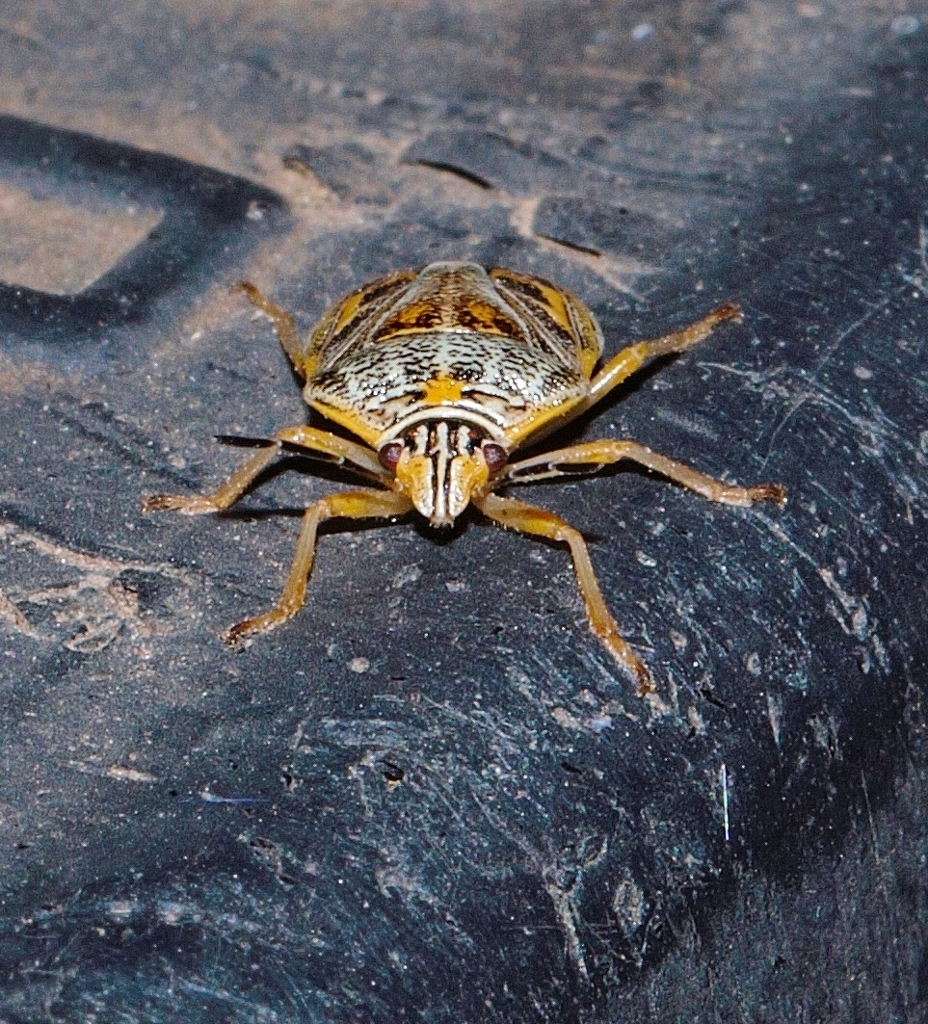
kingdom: Animalia
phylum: Arthropoda
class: Insecta
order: Hemiptera
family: Pentatomidae
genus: Antestiopsis
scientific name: Antestiopsis thunbergii
